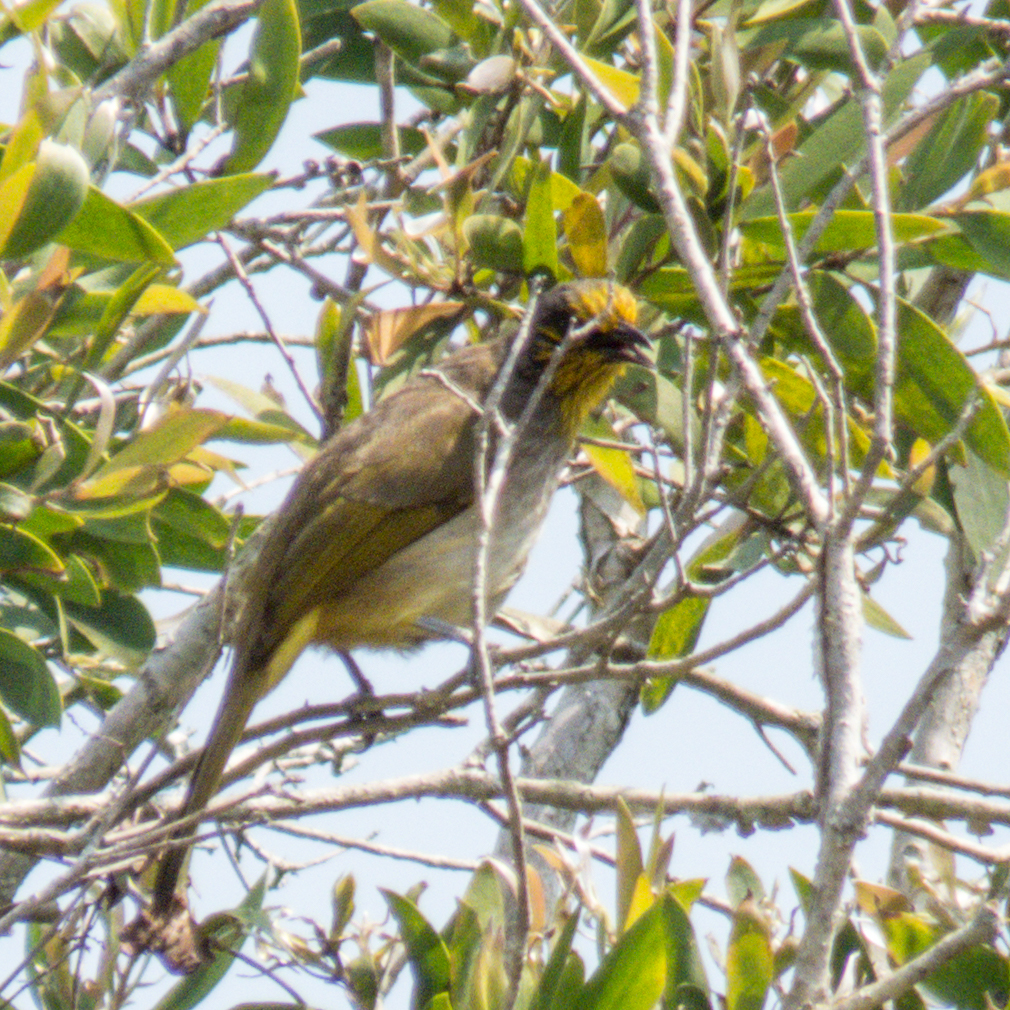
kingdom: Animalia
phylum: Chordata
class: Aves
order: Passeriformes
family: Pycnonotidae
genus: Pycnonotus
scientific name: Pycnonotus finlaysoni
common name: Stripe-throated bulbul
